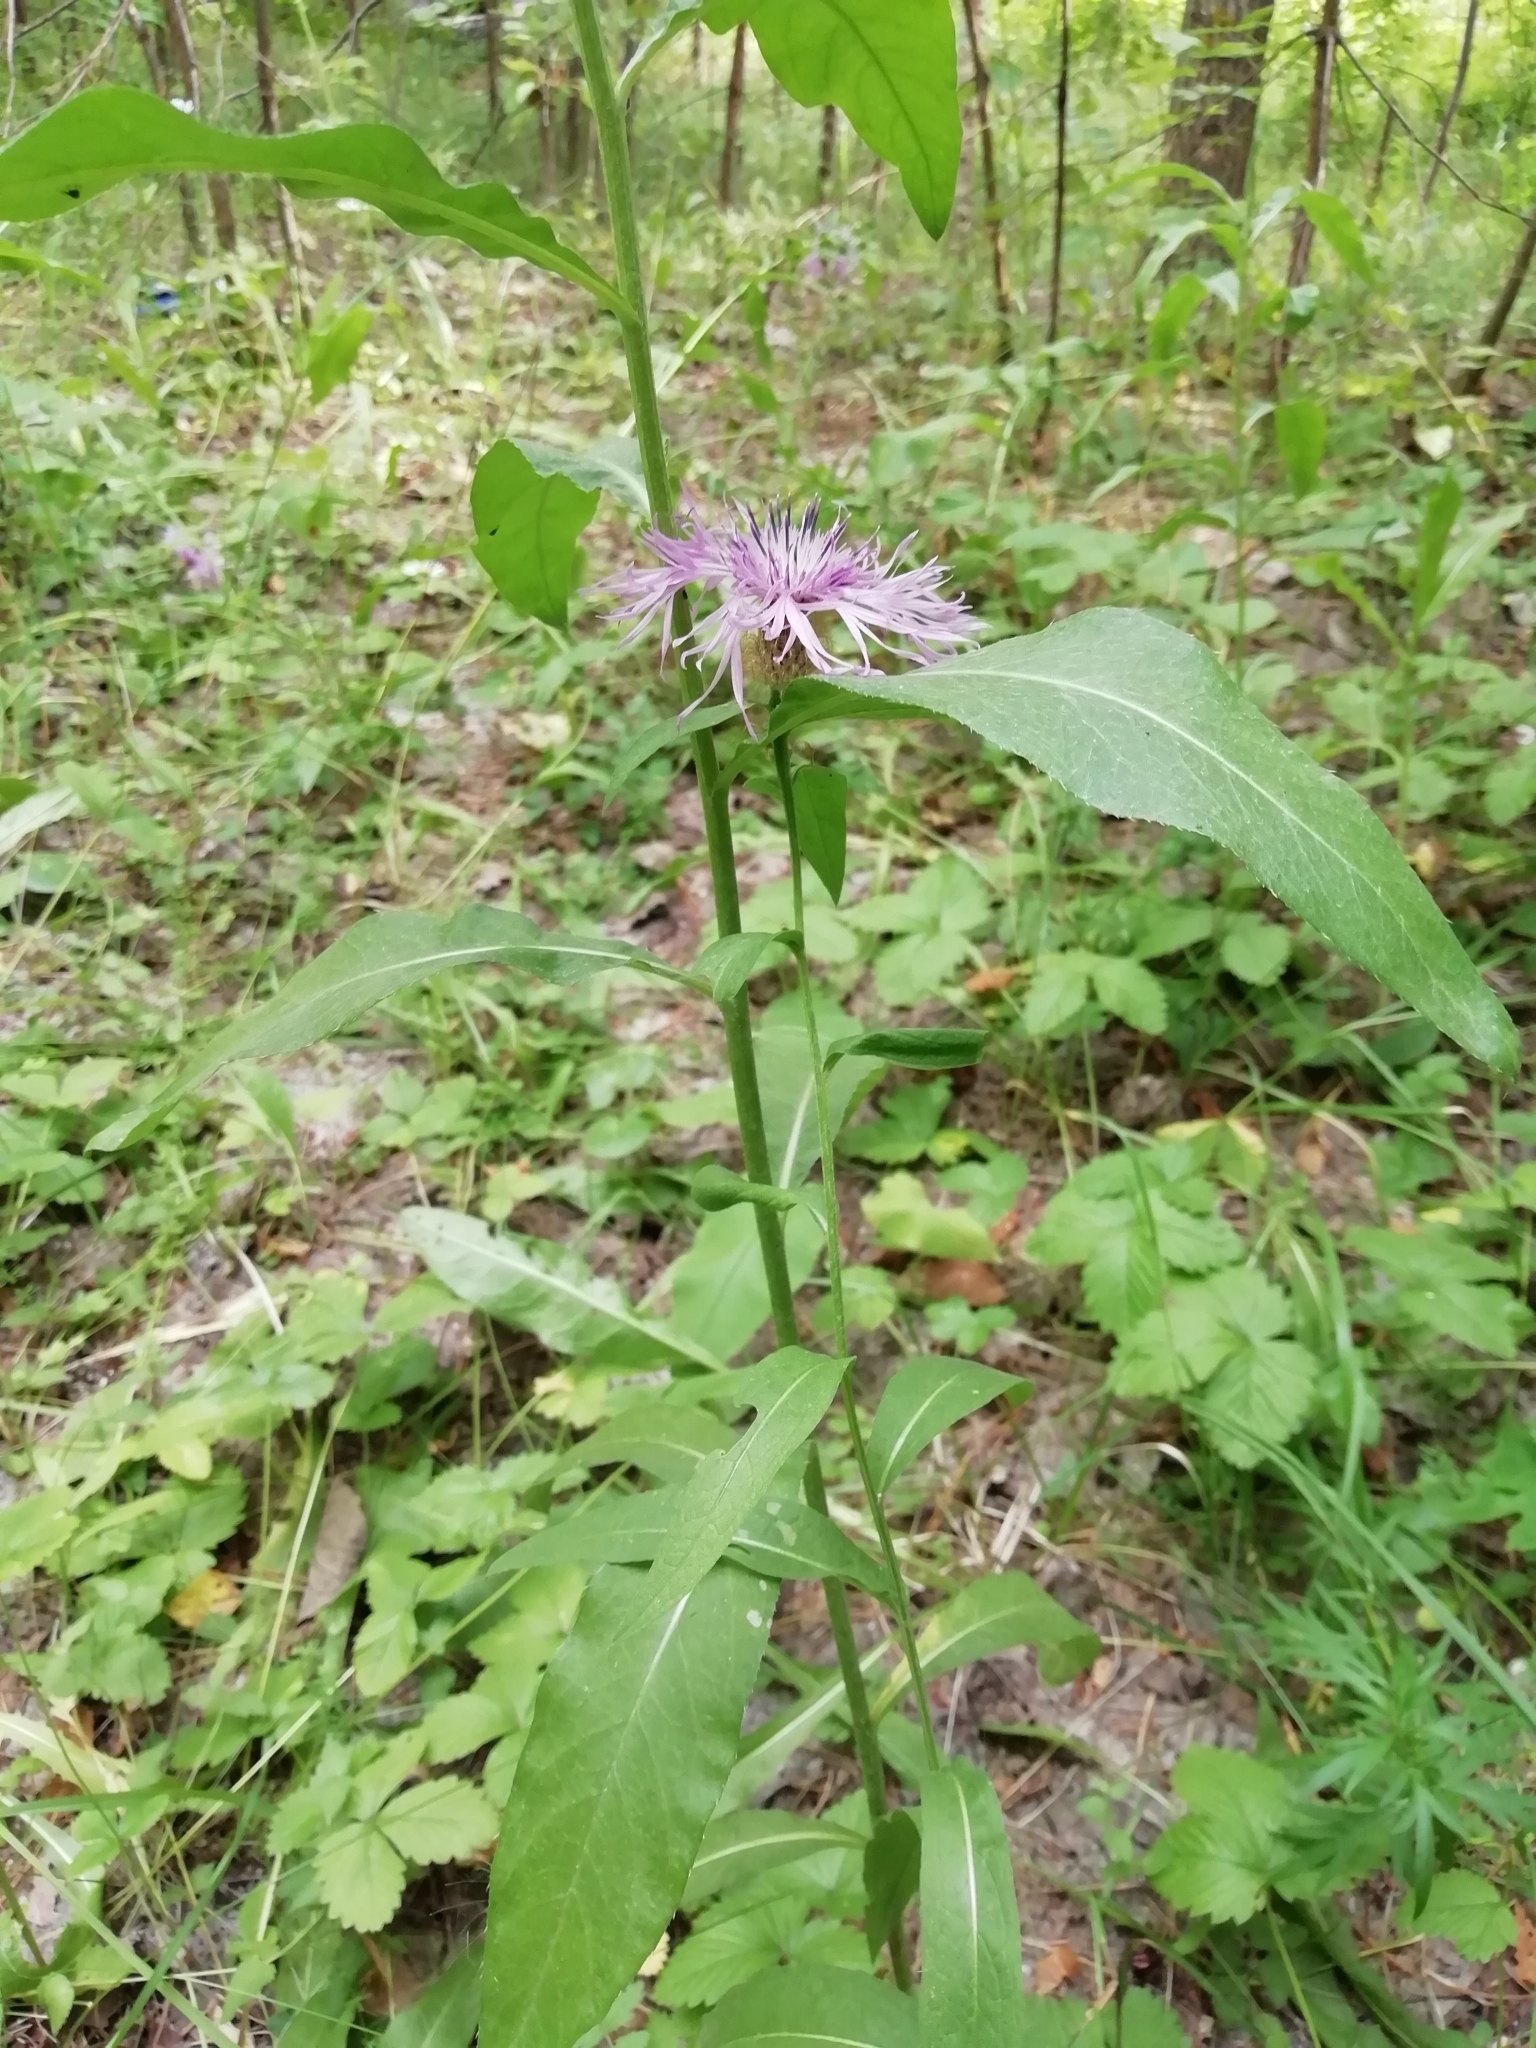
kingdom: Plantae
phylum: Tracheophyta
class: Magnoliopsida
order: Asterales
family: Asteraceae
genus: Centaurea
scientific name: Centaurea phrygia
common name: Wig knapweed
